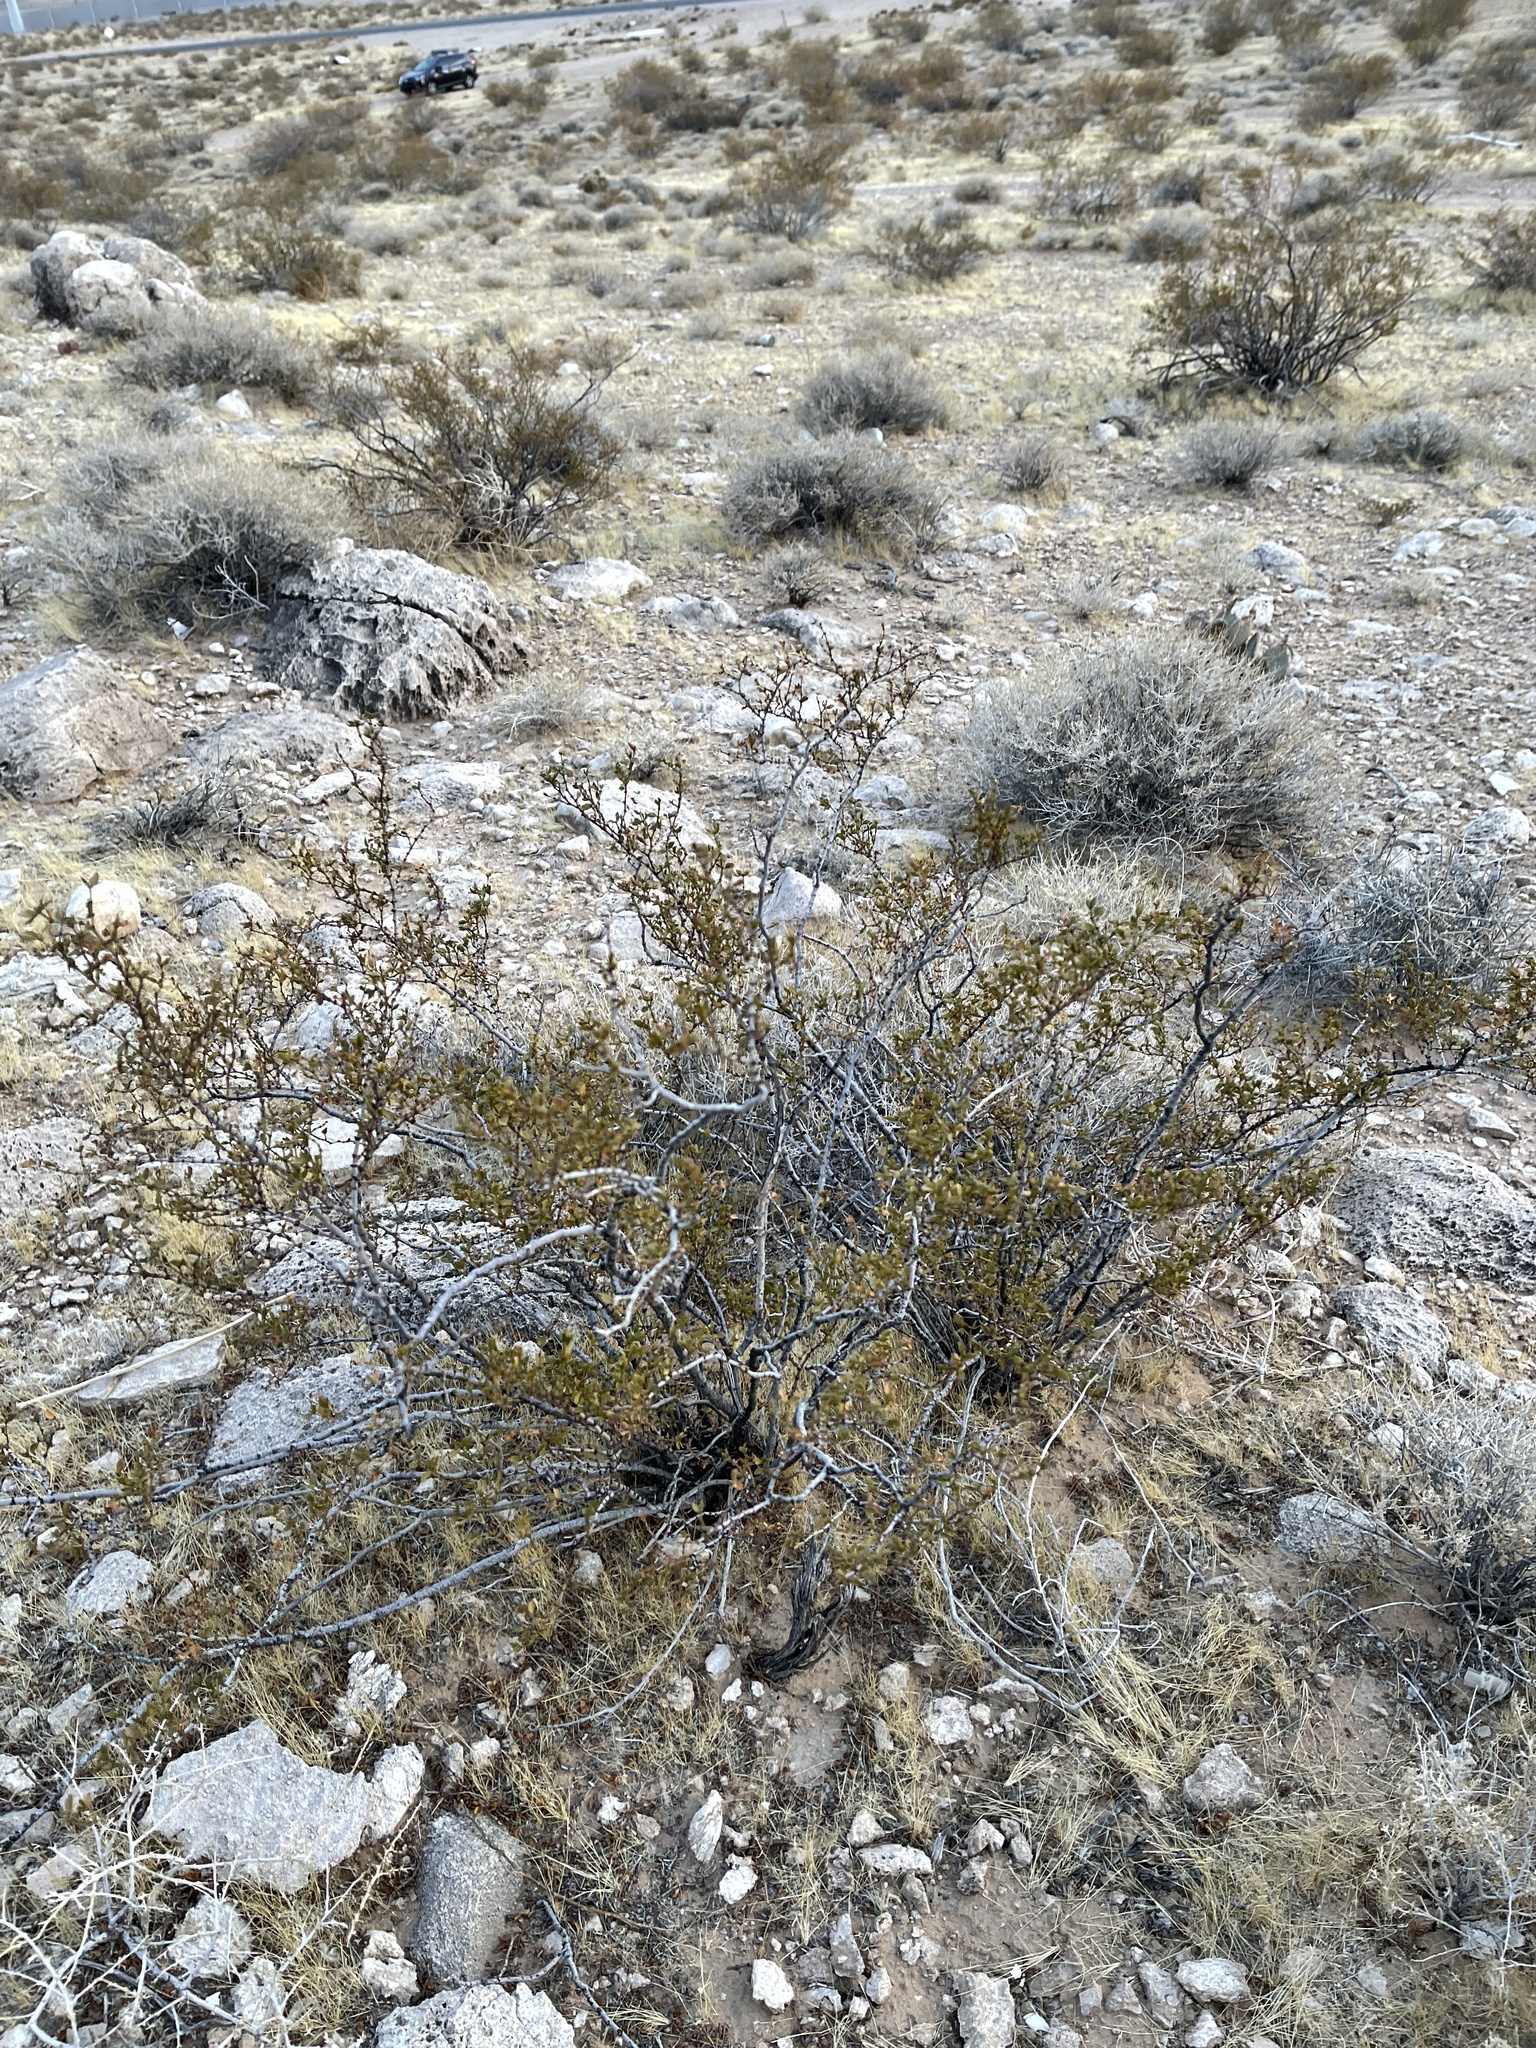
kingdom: Plantae
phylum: Tracheophyta
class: Magnoliopsida
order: Zygophyllales
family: Zygophyllaceae
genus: Larrea
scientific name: Larrea tridentata
